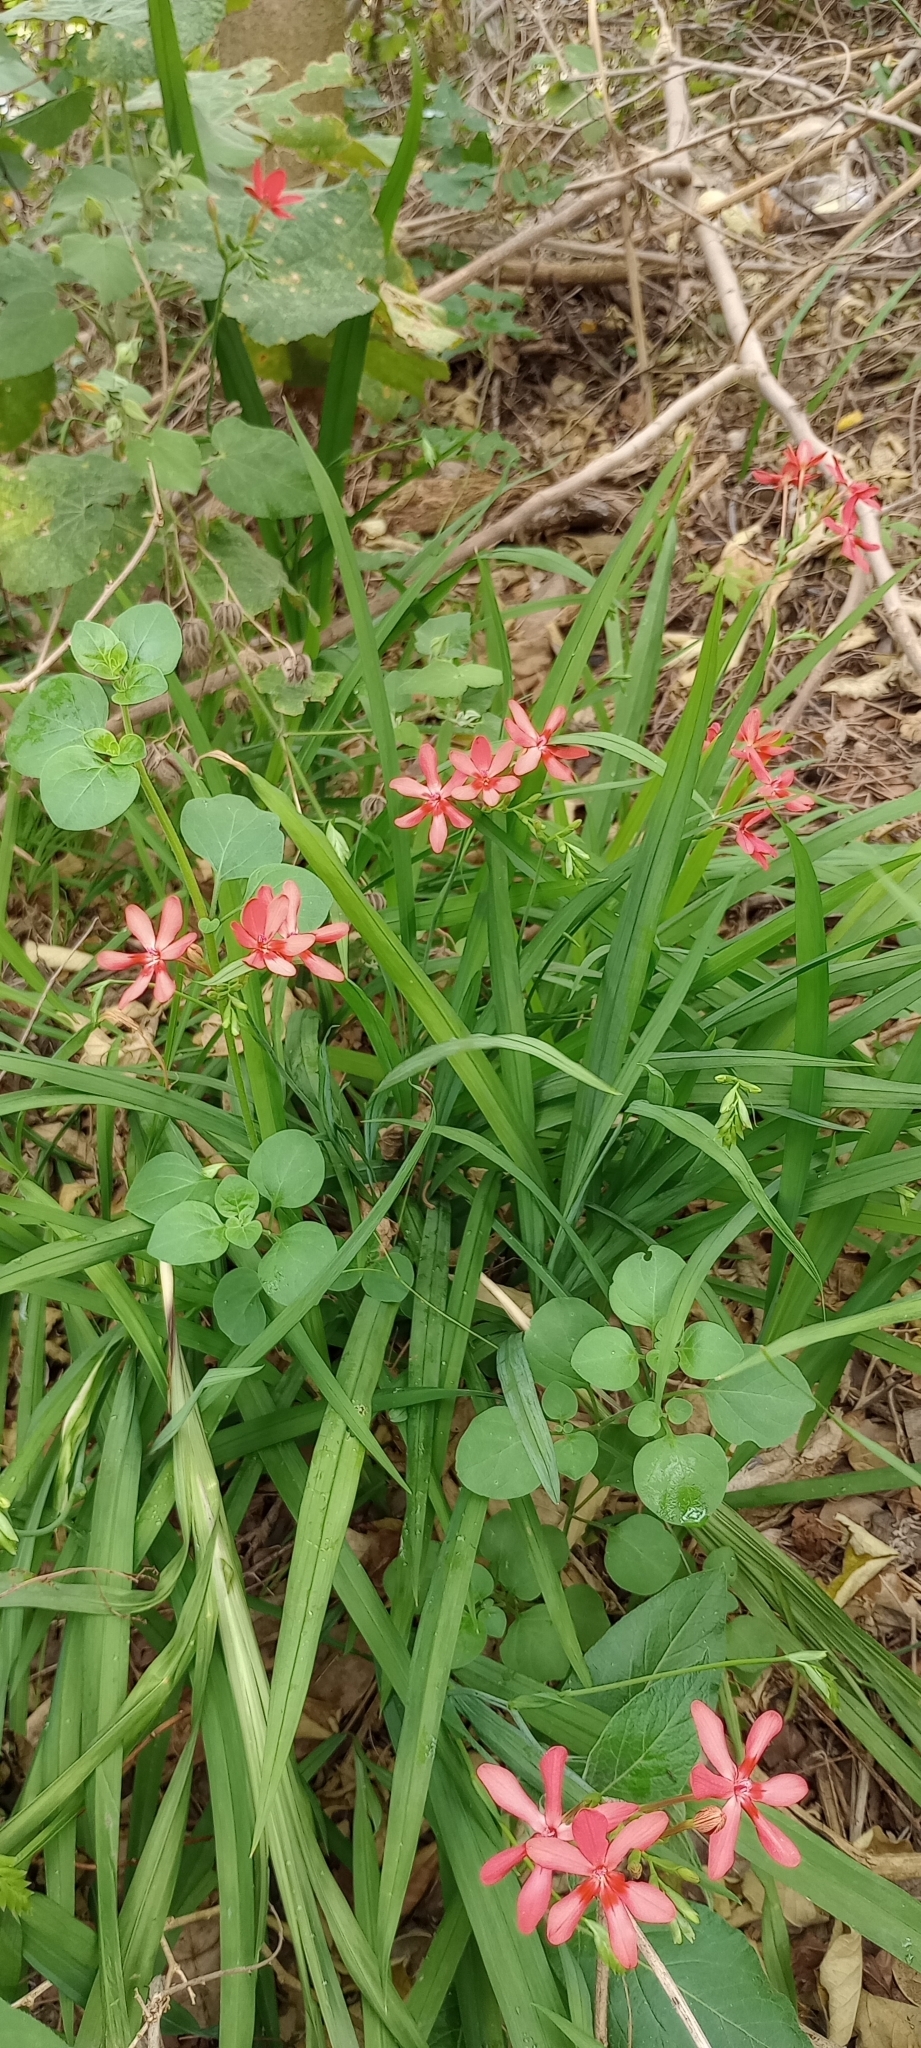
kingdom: Plantae
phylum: Tracheophyta
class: Liliopsida
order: Asparagales
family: Iridaceae
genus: Freesia
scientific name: Freesia laxa
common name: False freesia
